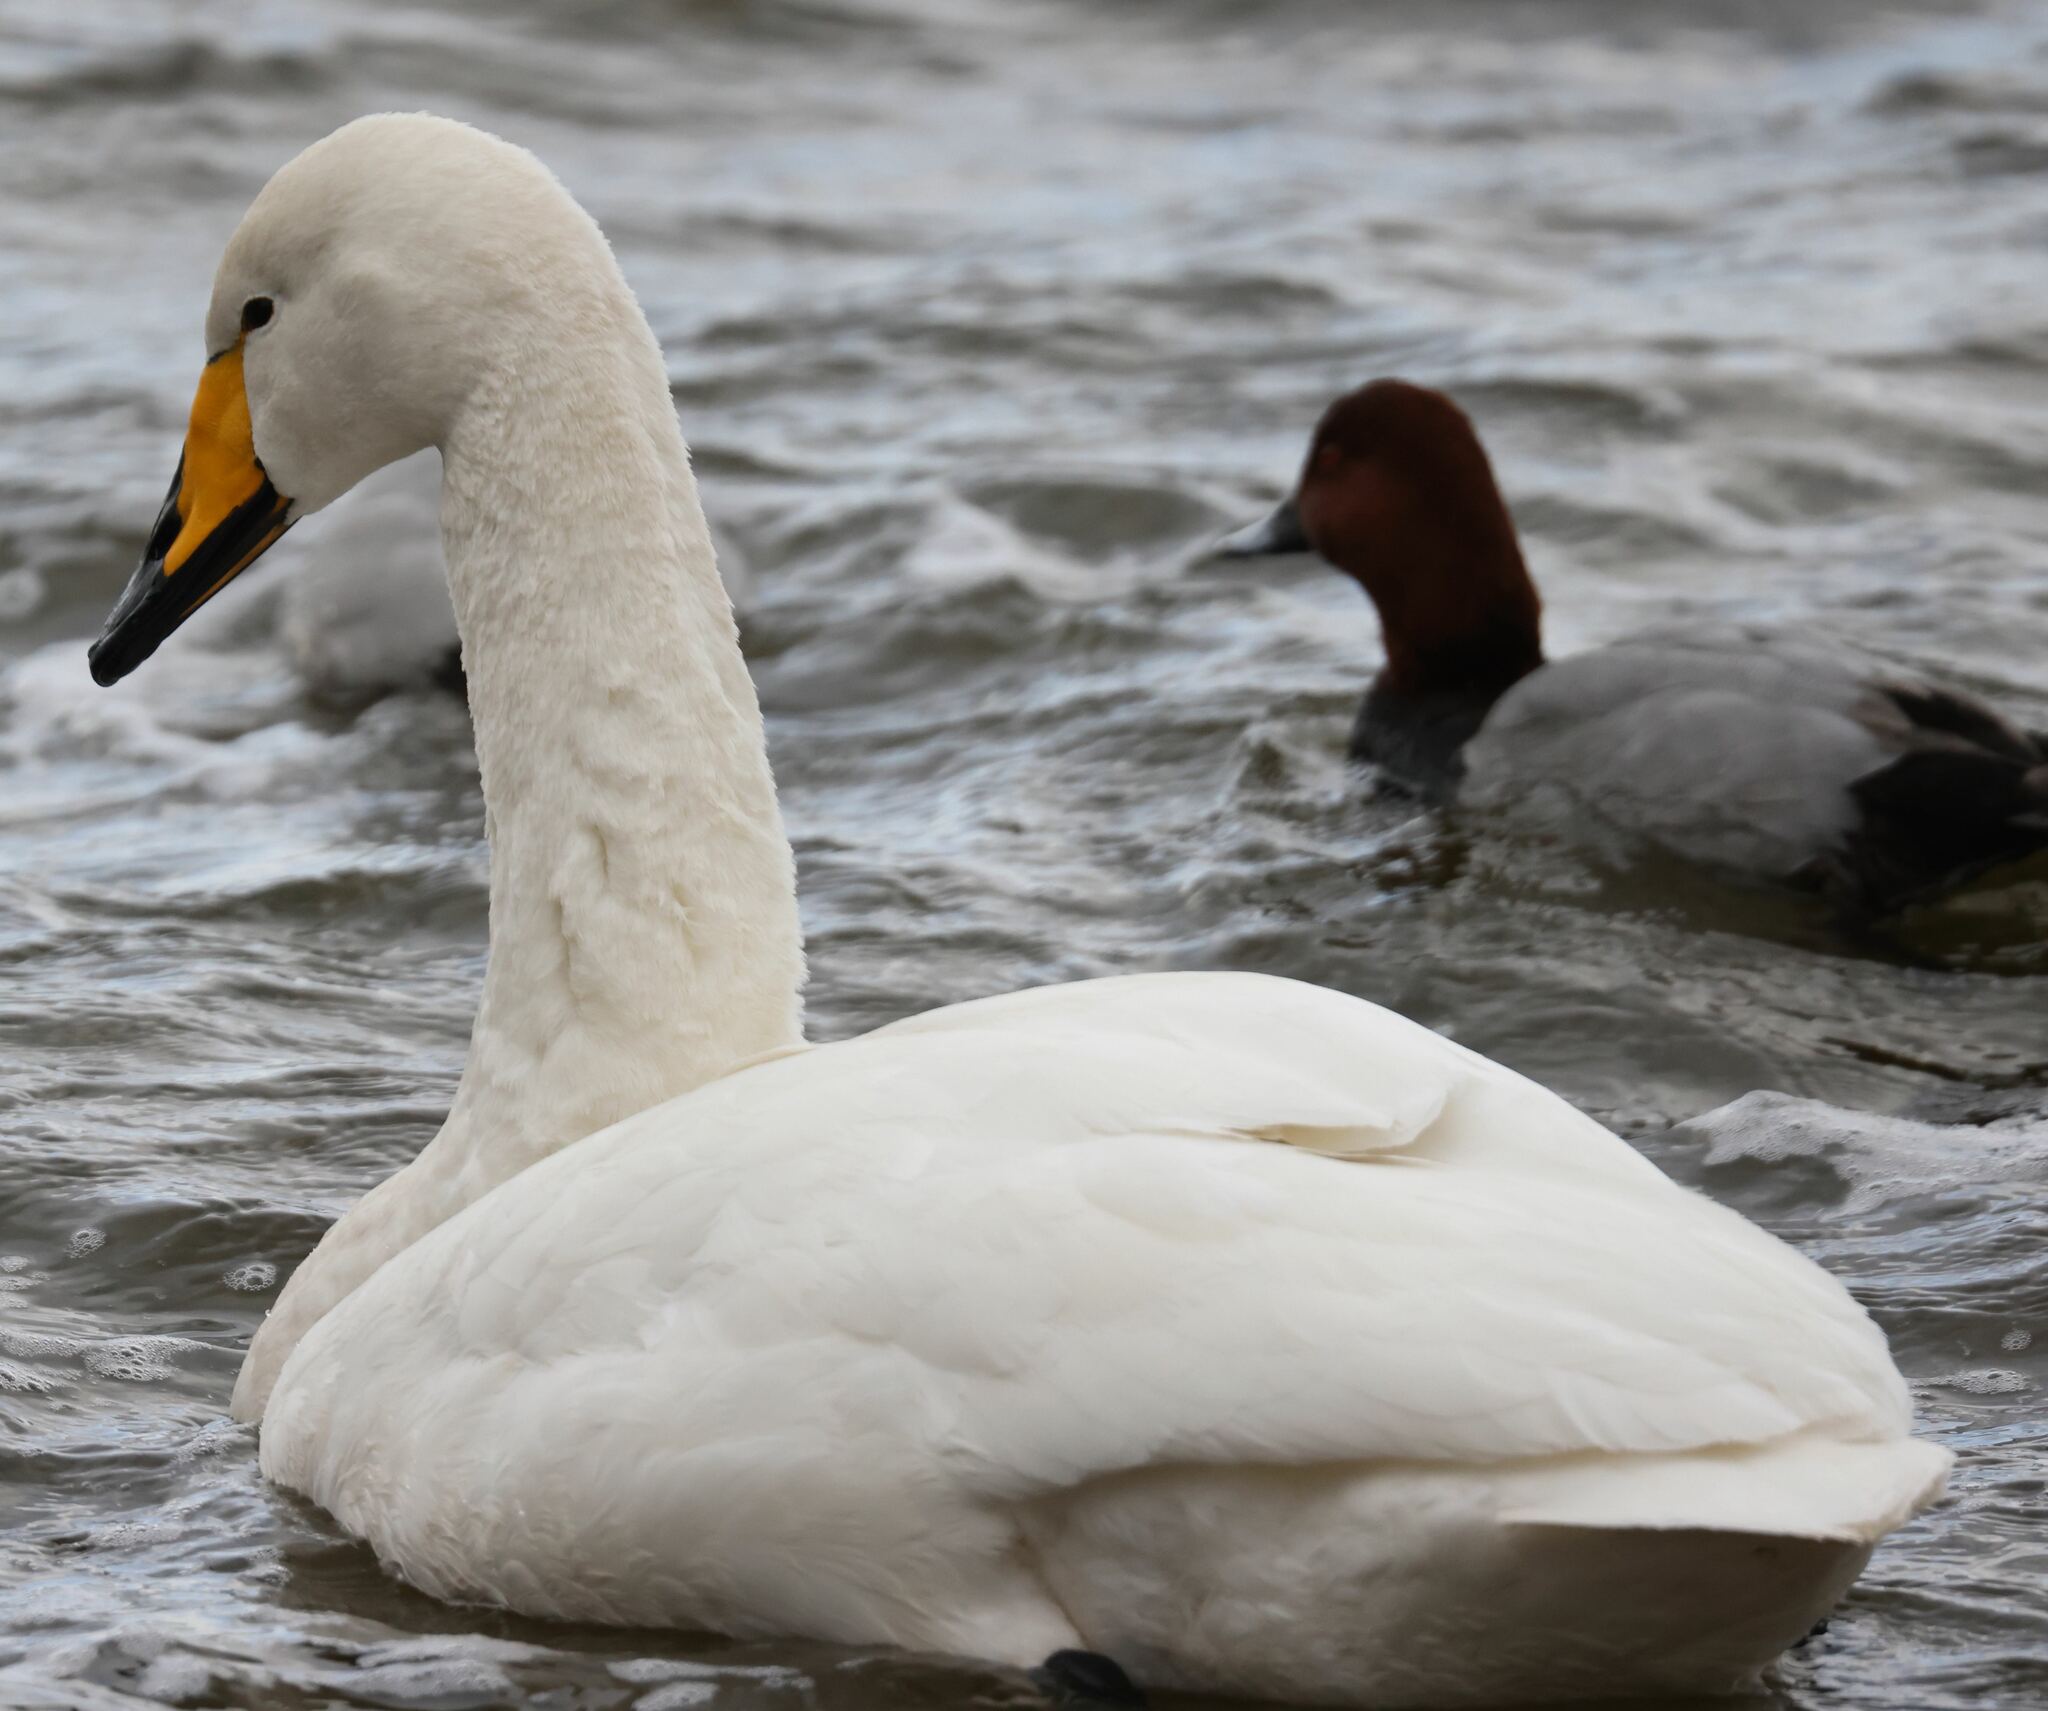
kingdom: Animalia
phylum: Chordata
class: Aves
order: Anseriformes
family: Anatidae
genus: Cygnus
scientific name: Cygnus cygnus
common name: Whooper swan
